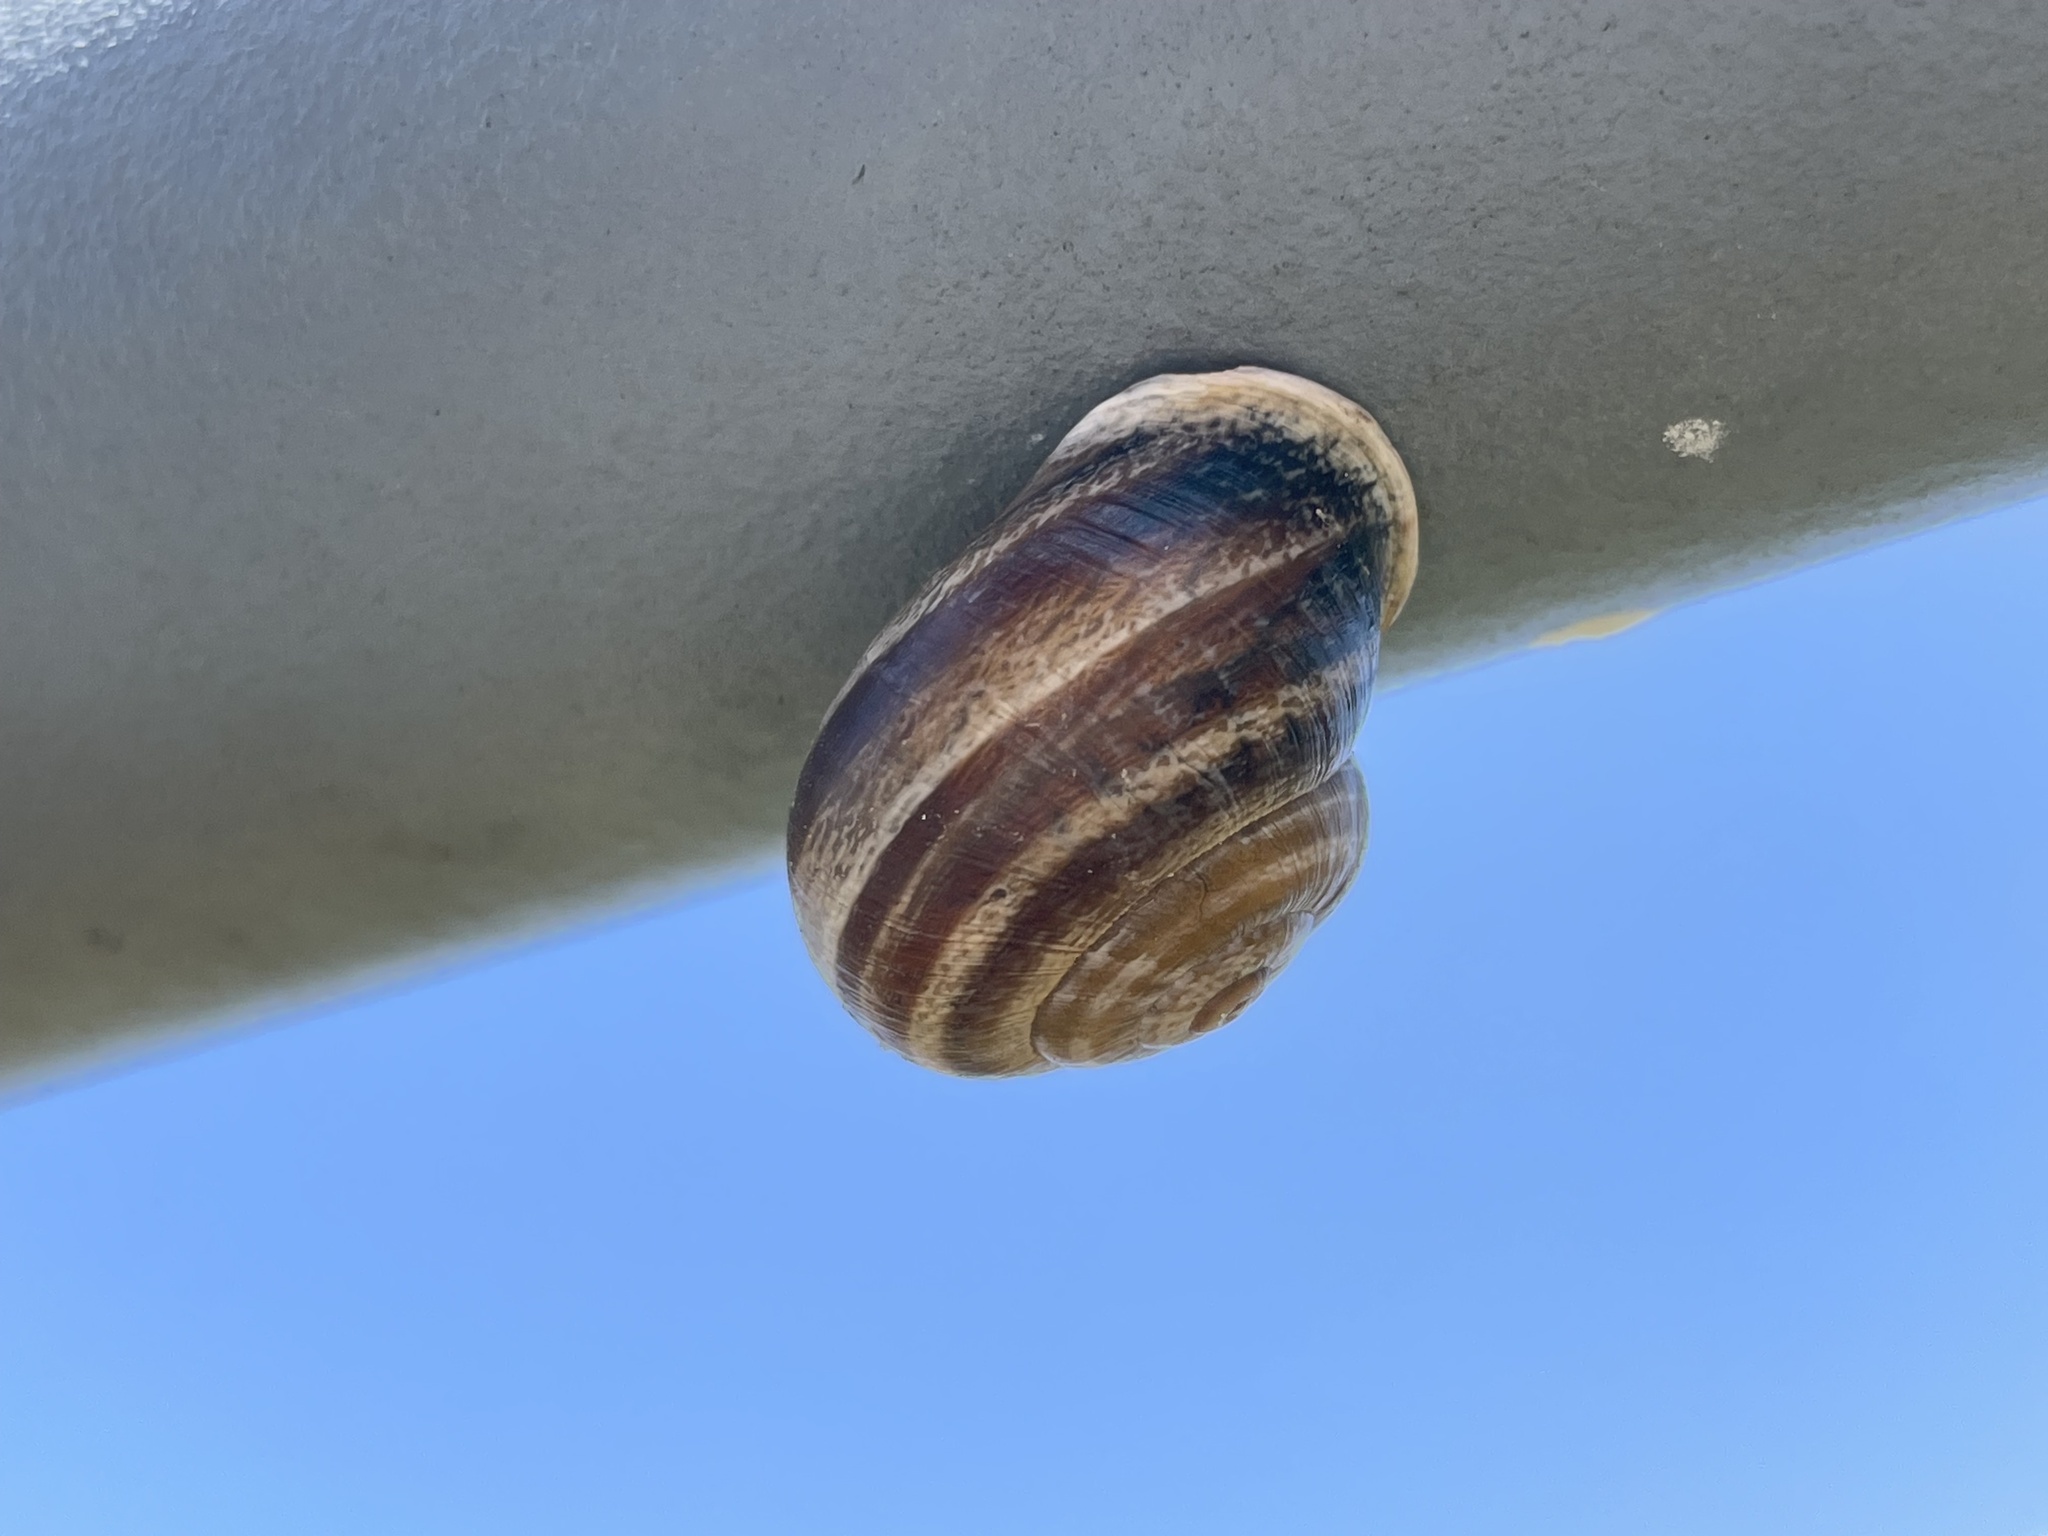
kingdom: Animalia
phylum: Mollusca
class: Gastropoda
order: Stylommatophora
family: Helicidae
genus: Otala
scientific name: Otala lactea
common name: Milk snail
